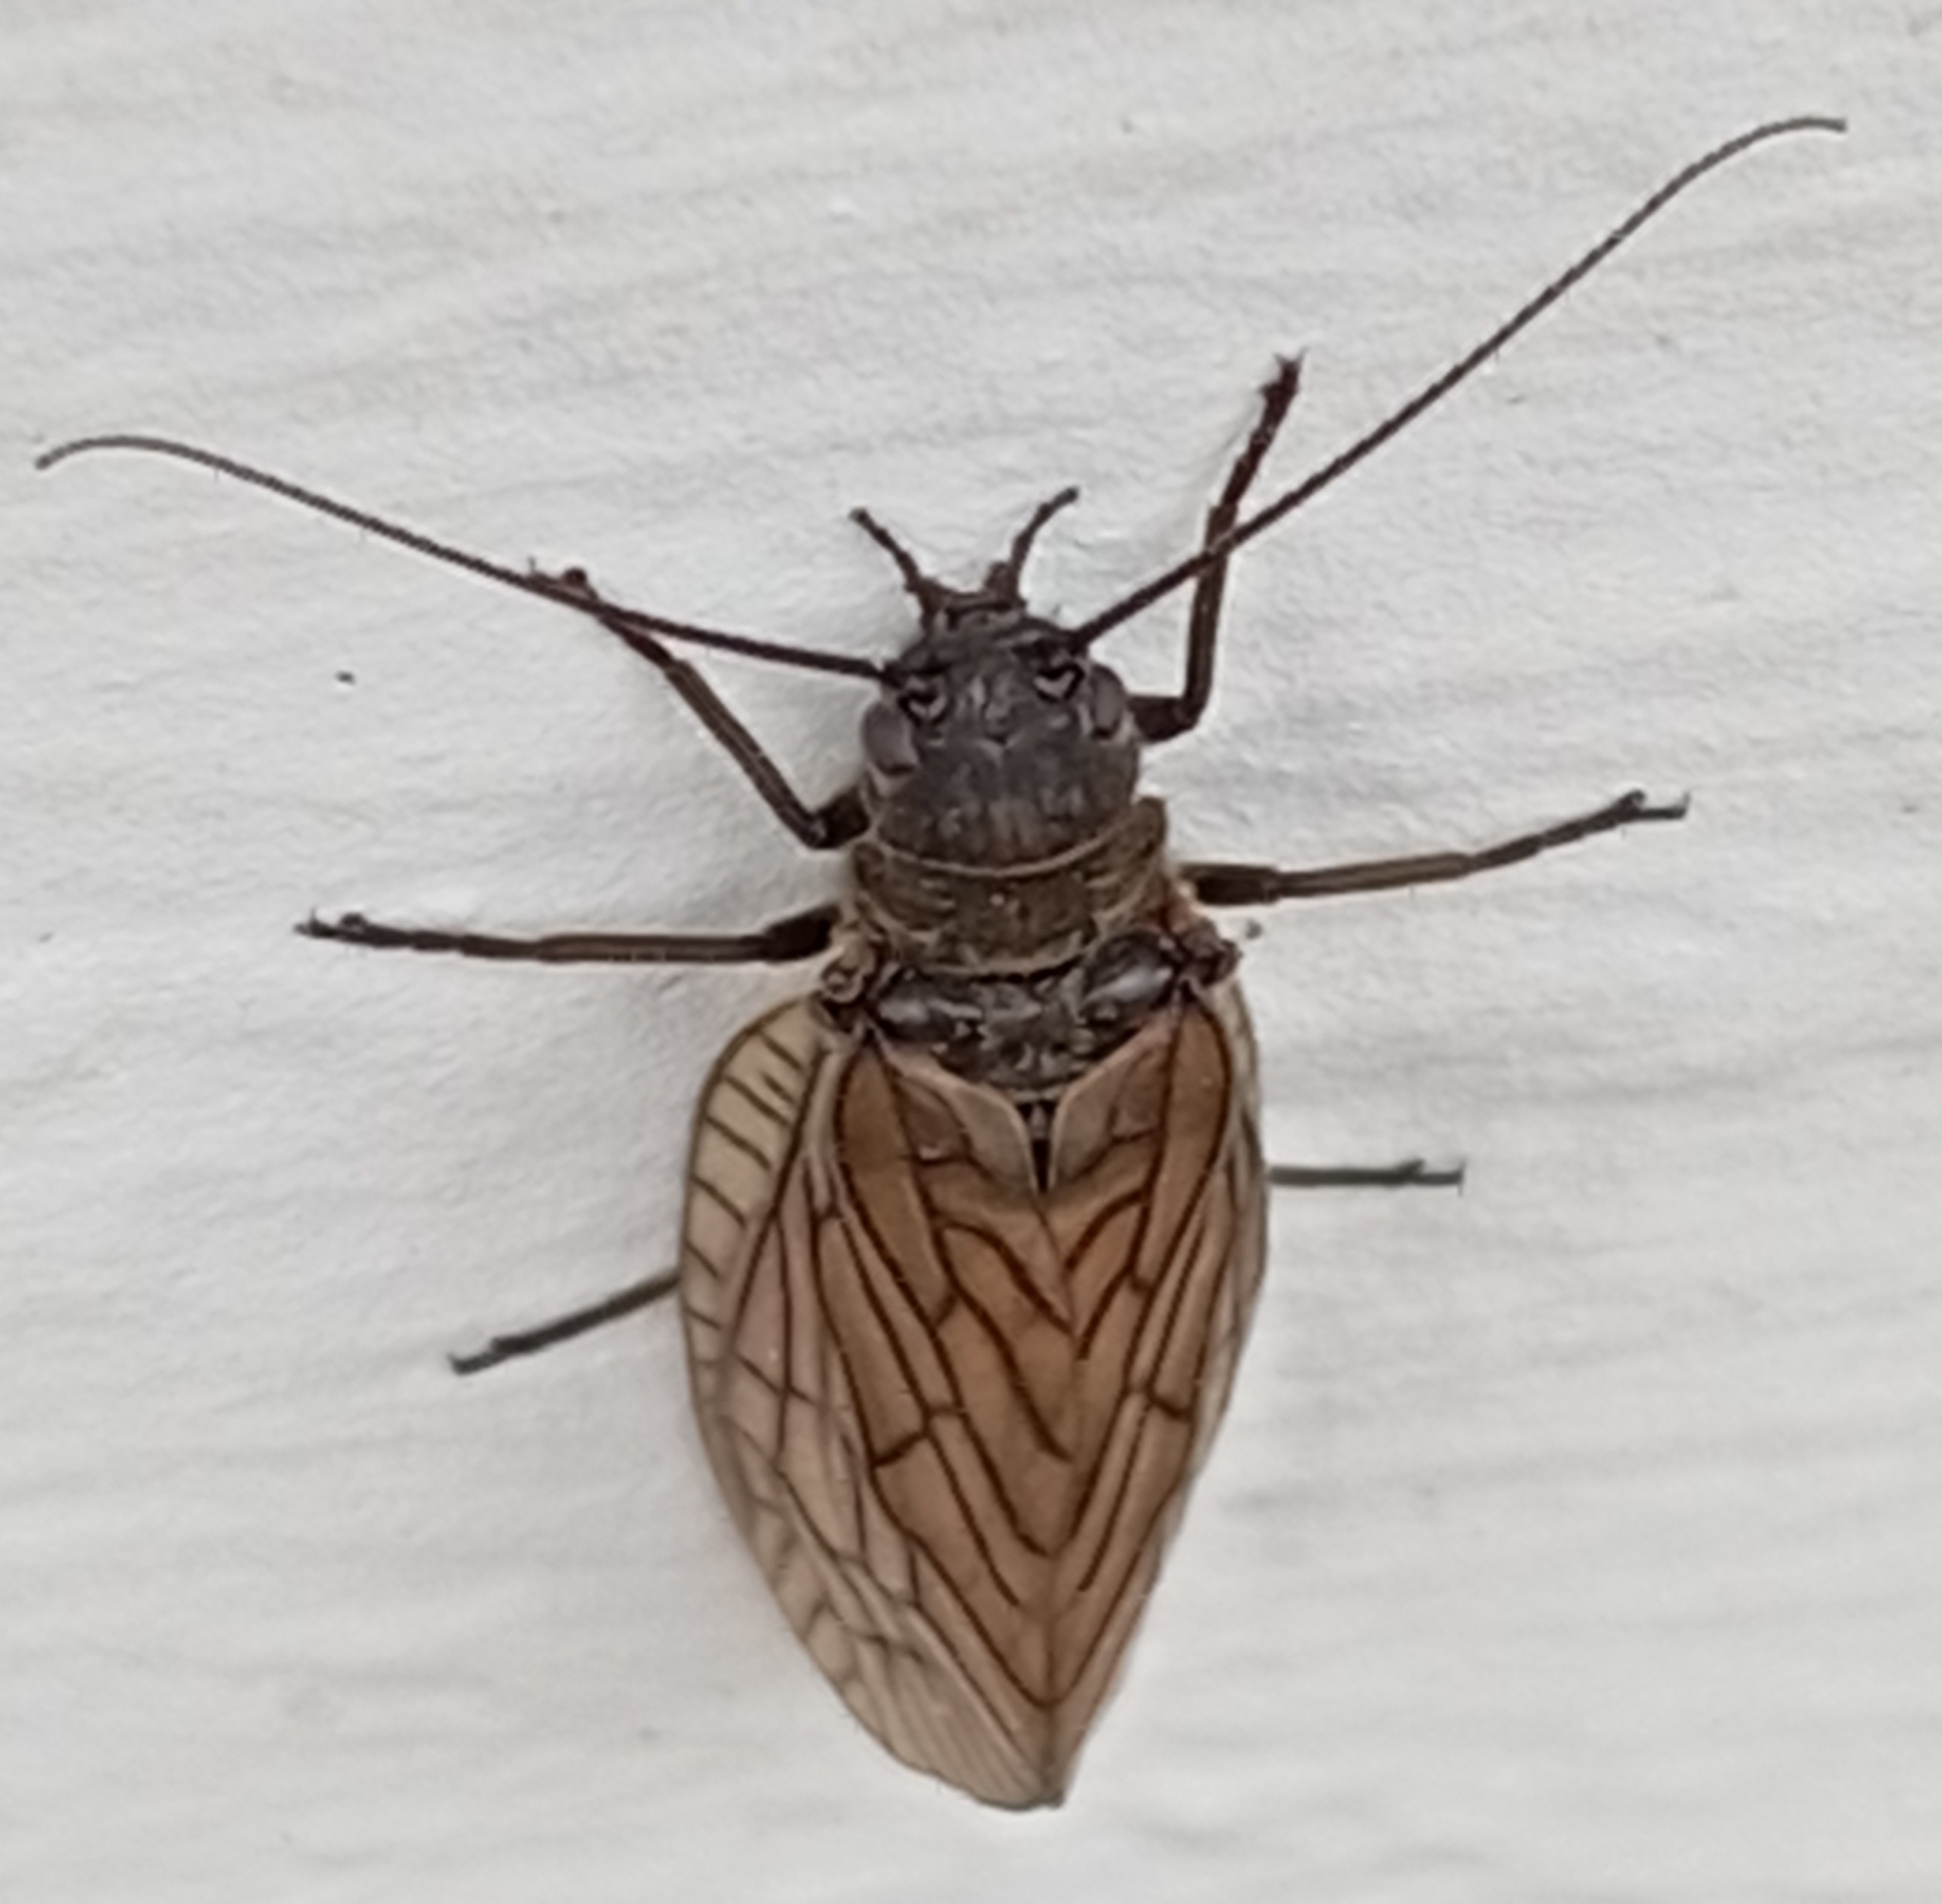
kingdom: Animalia
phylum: Arthropoda
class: Insecta
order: Megaloptera
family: Sialidae
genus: Sialis
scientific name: Sialis
